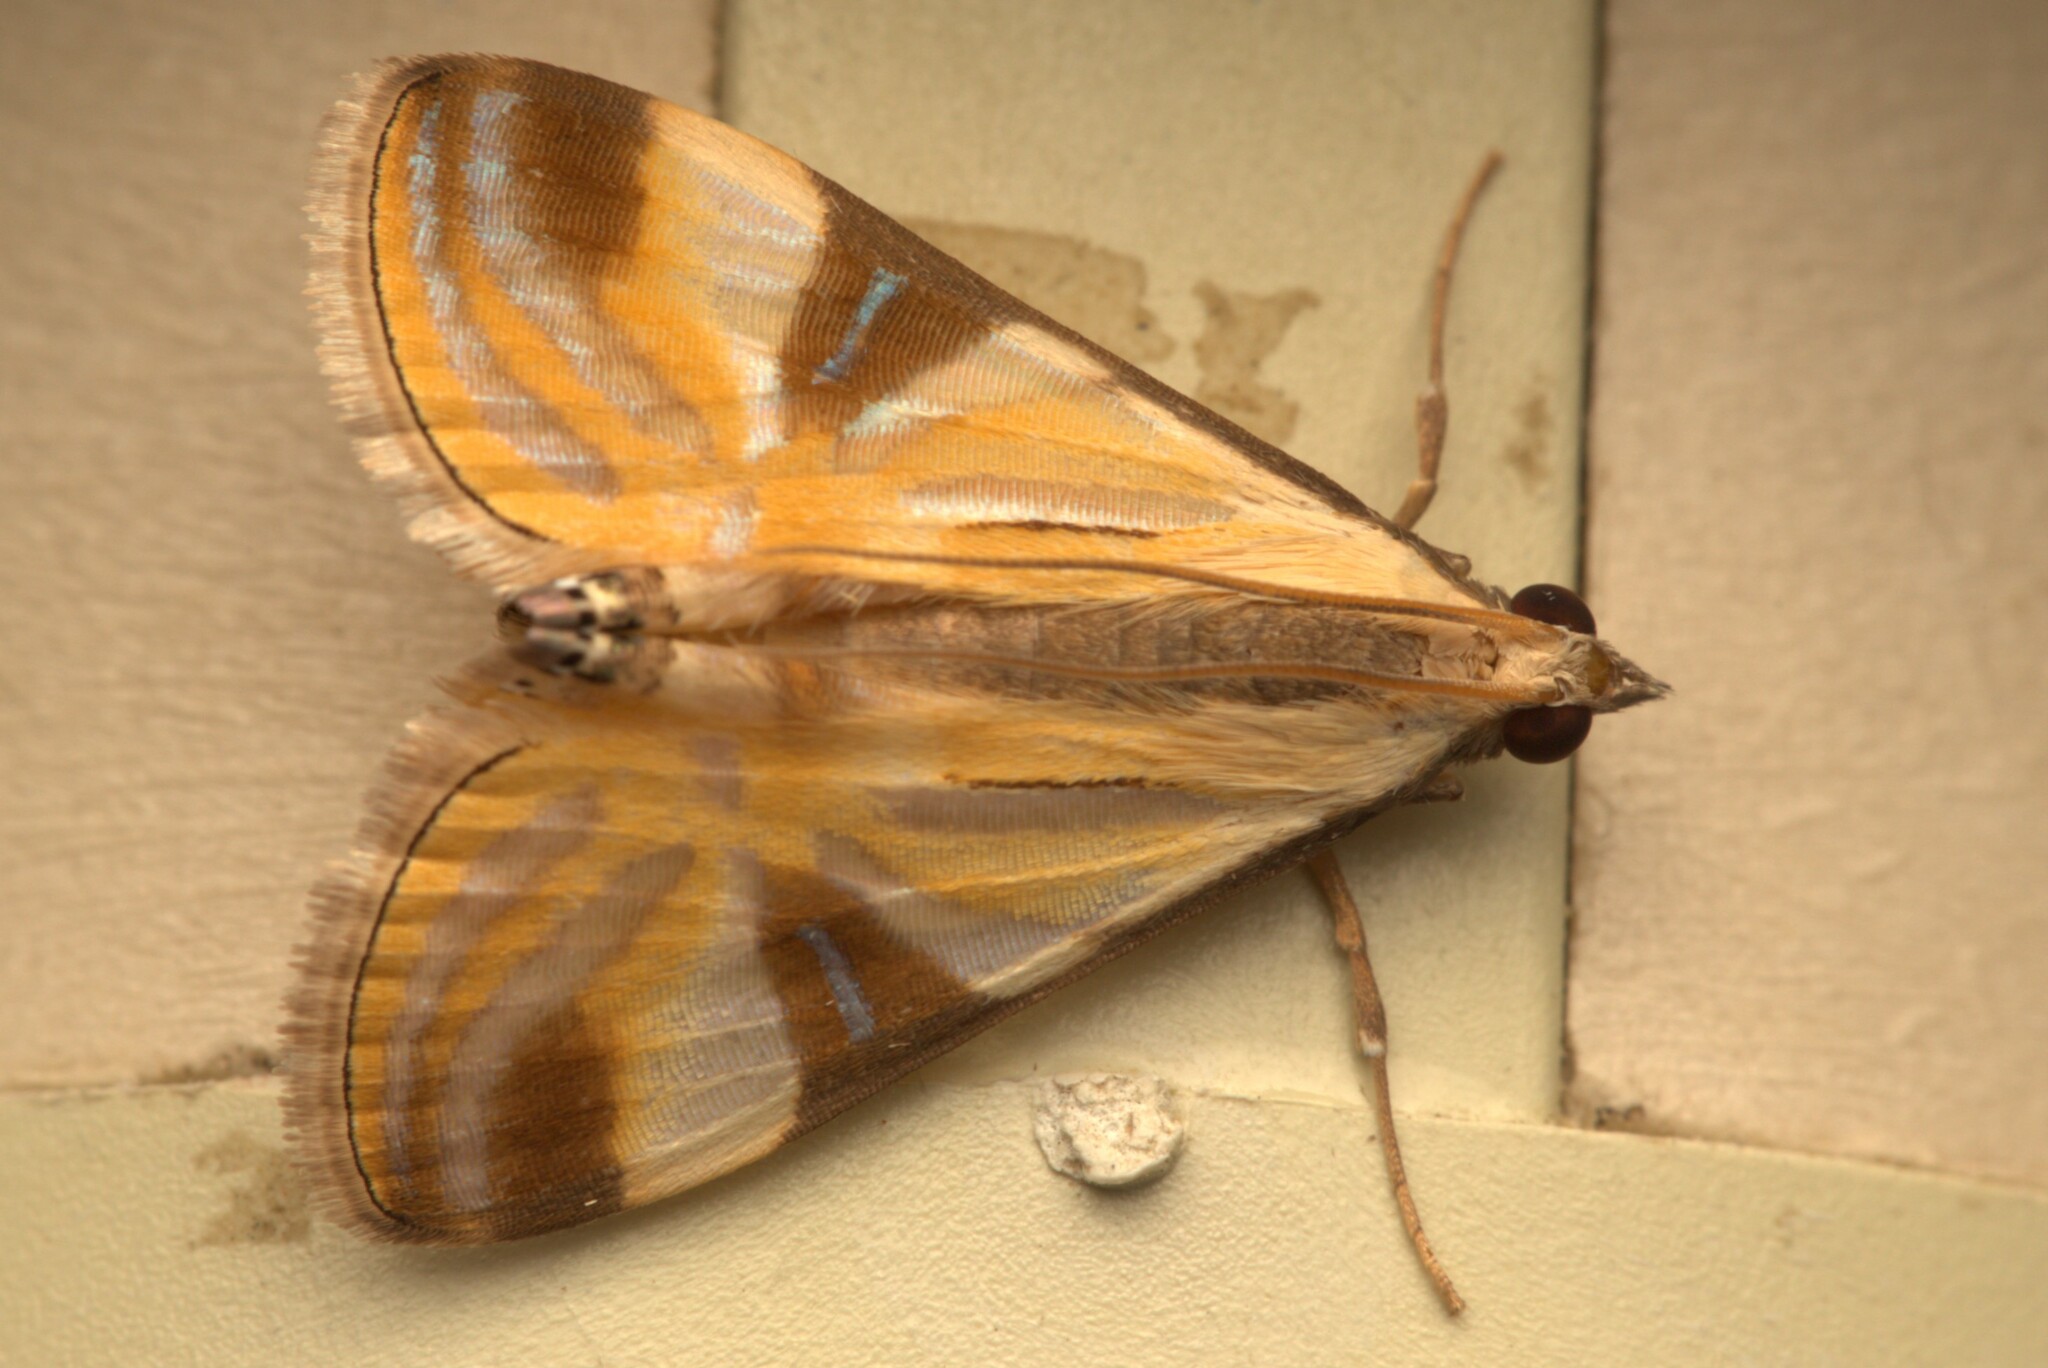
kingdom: Animalia
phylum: Arthropoda
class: Insecta
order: Lepidoptera
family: Crambidae
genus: Talanga
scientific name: Talanga tolumnialis
